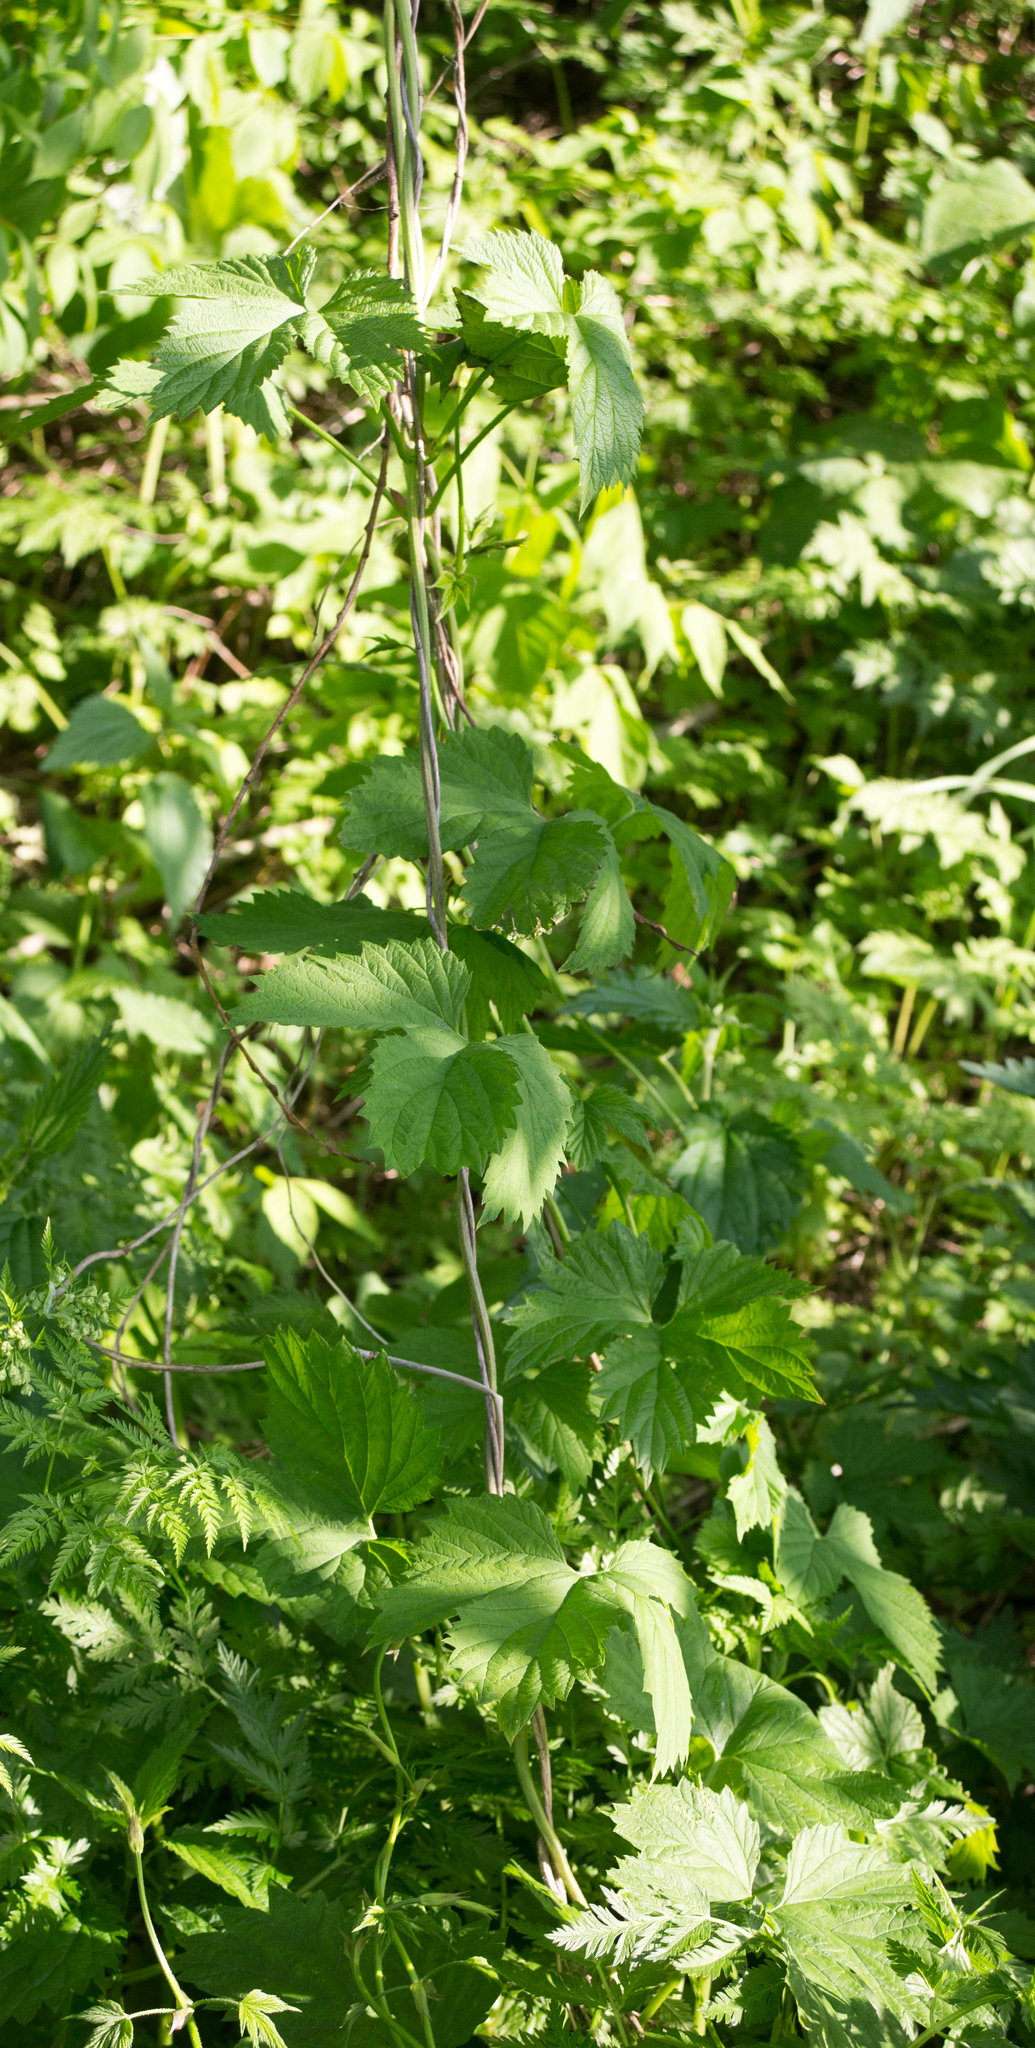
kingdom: Plantae
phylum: Tracheophyta
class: Magnoliopsida
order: Rosales
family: Cannabaceae
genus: Humulus
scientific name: Humulus lupulus
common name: Hop
